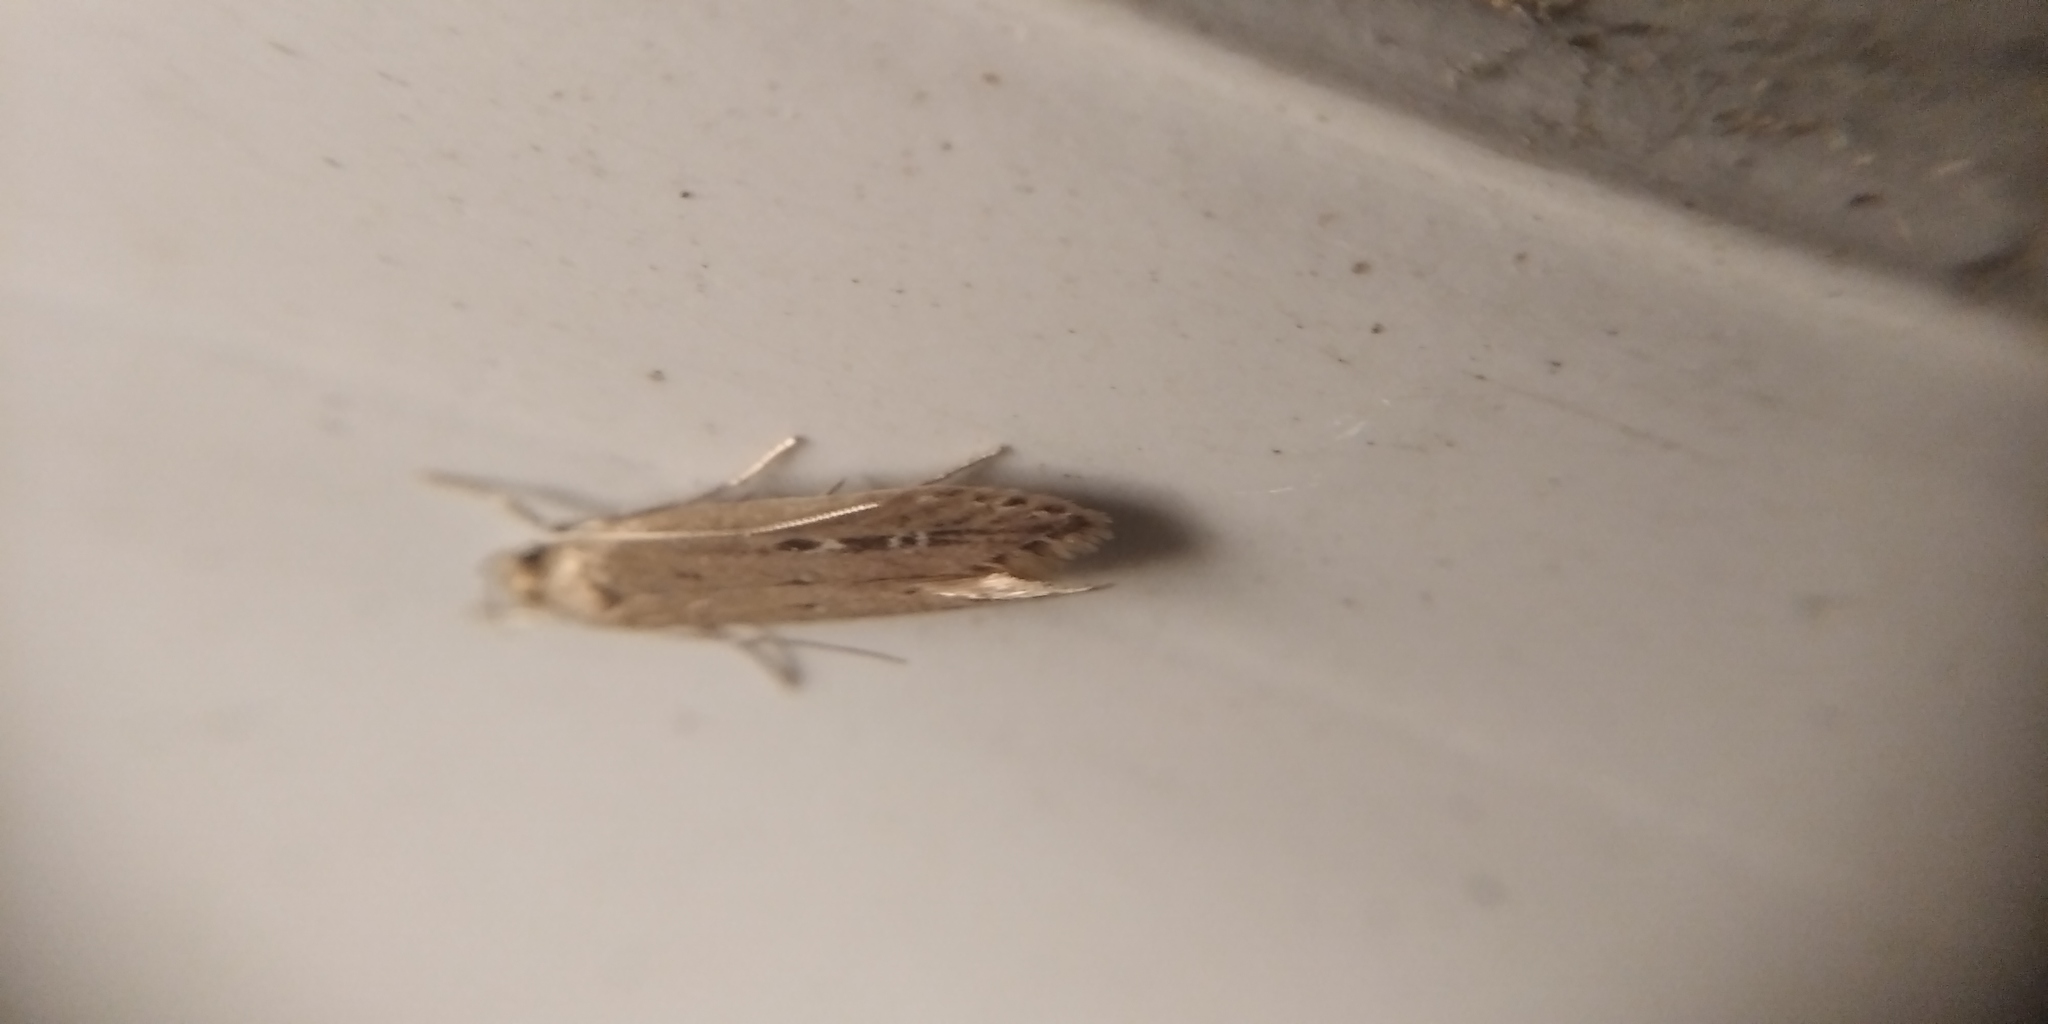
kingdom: Animalia
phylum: Arthropoda
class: Insecta
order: Lepidoptera
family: Cosmopterigidae
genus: Limnaecia
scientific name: Limnaecia phragmitella
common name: Bulrush cosmet
